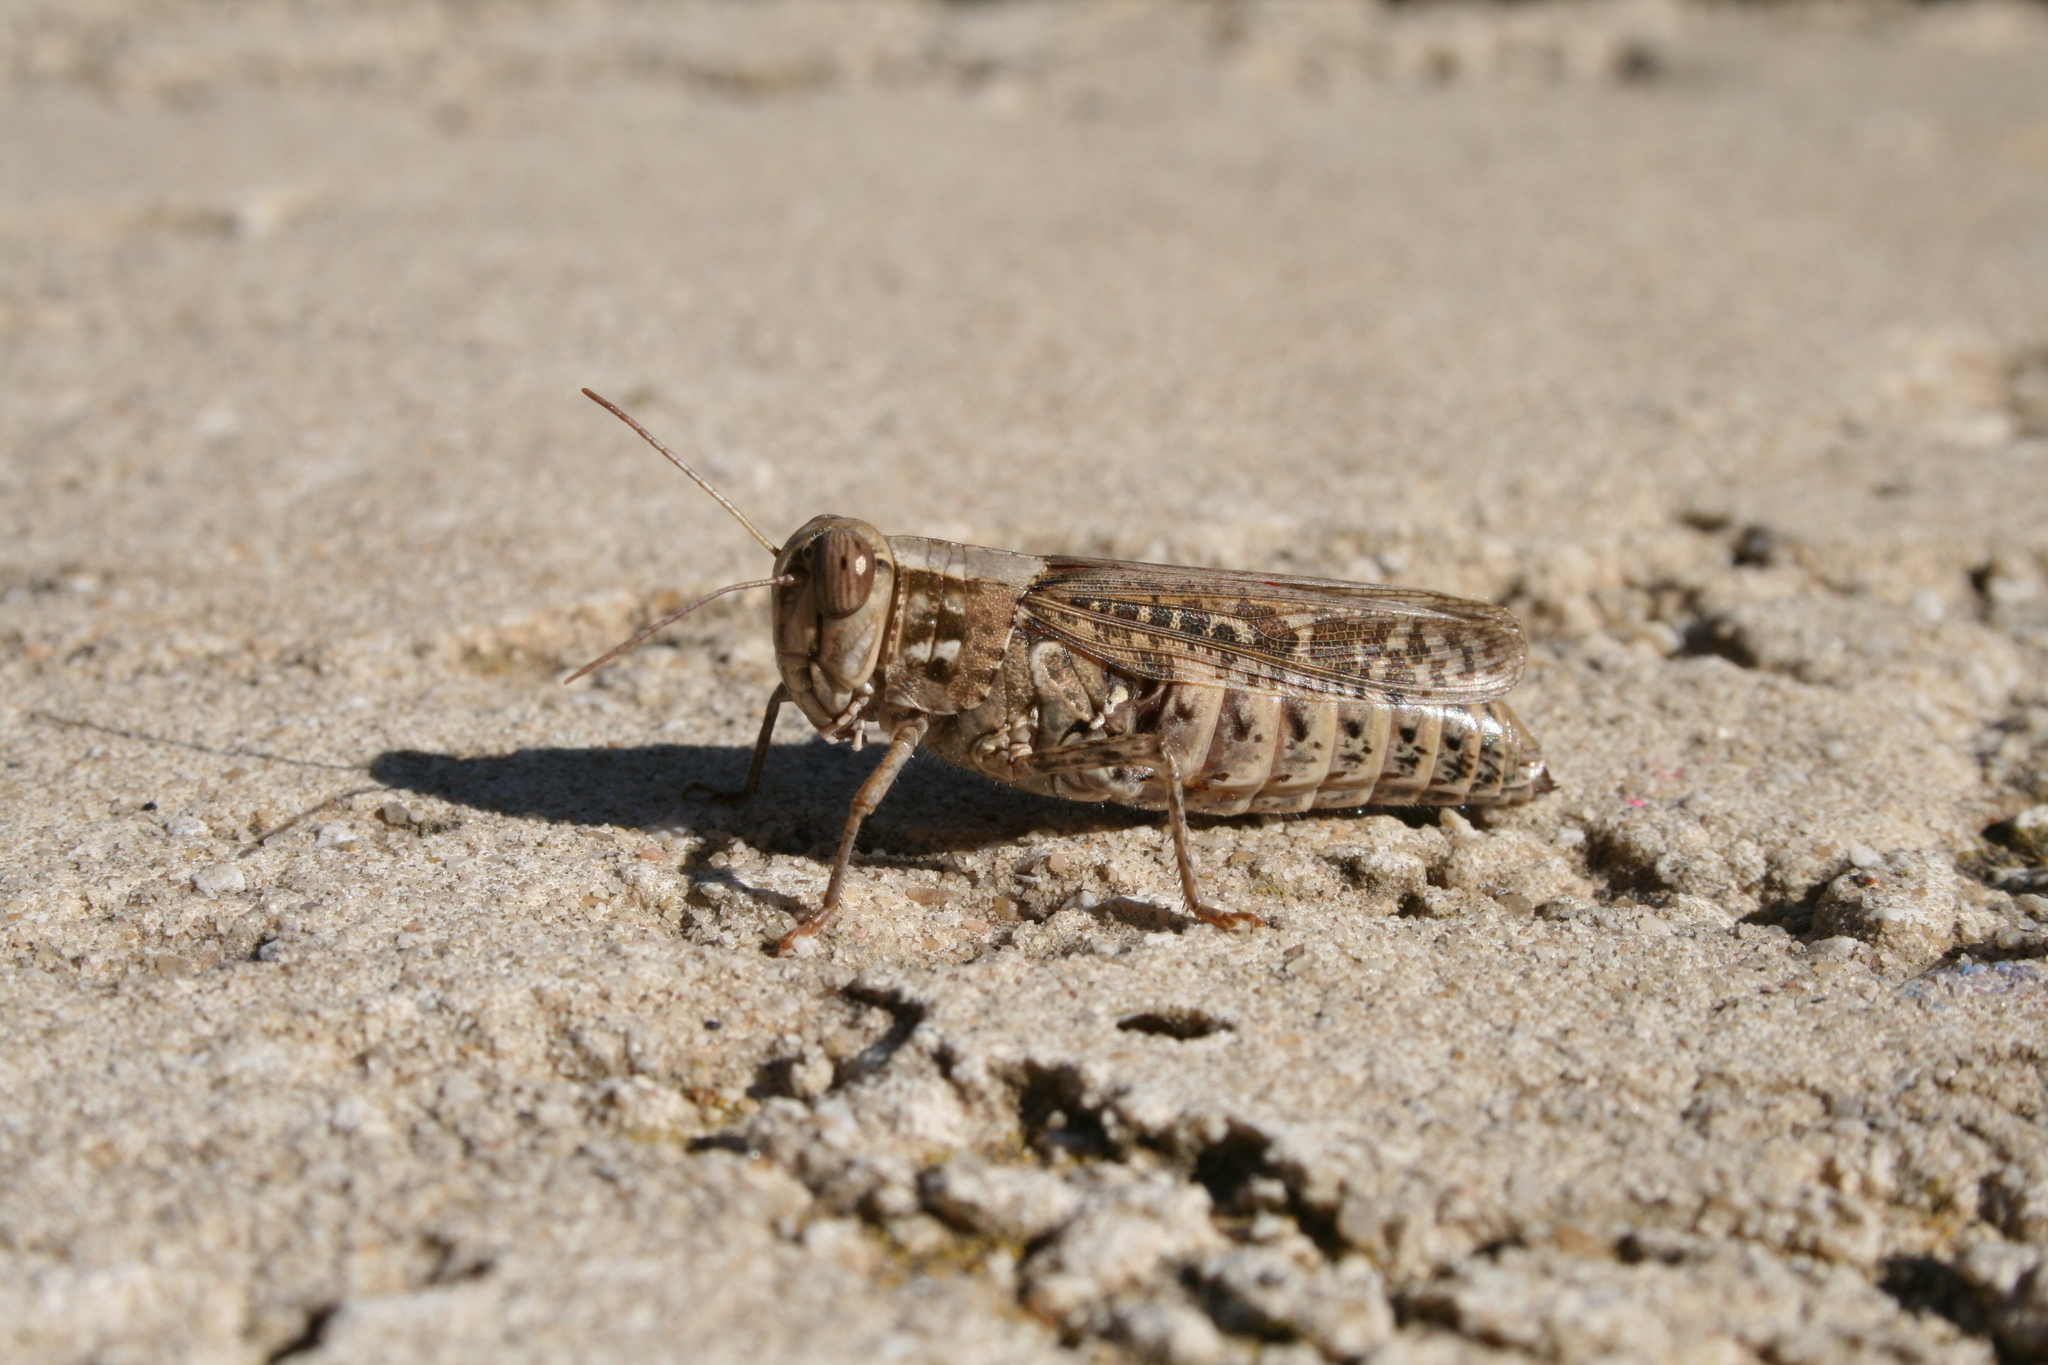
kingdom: Animalia
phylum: Arthropoda
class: Insecta
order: Orthoptera
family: Acrididae
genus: Calliptamus
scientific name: Calliptamus
